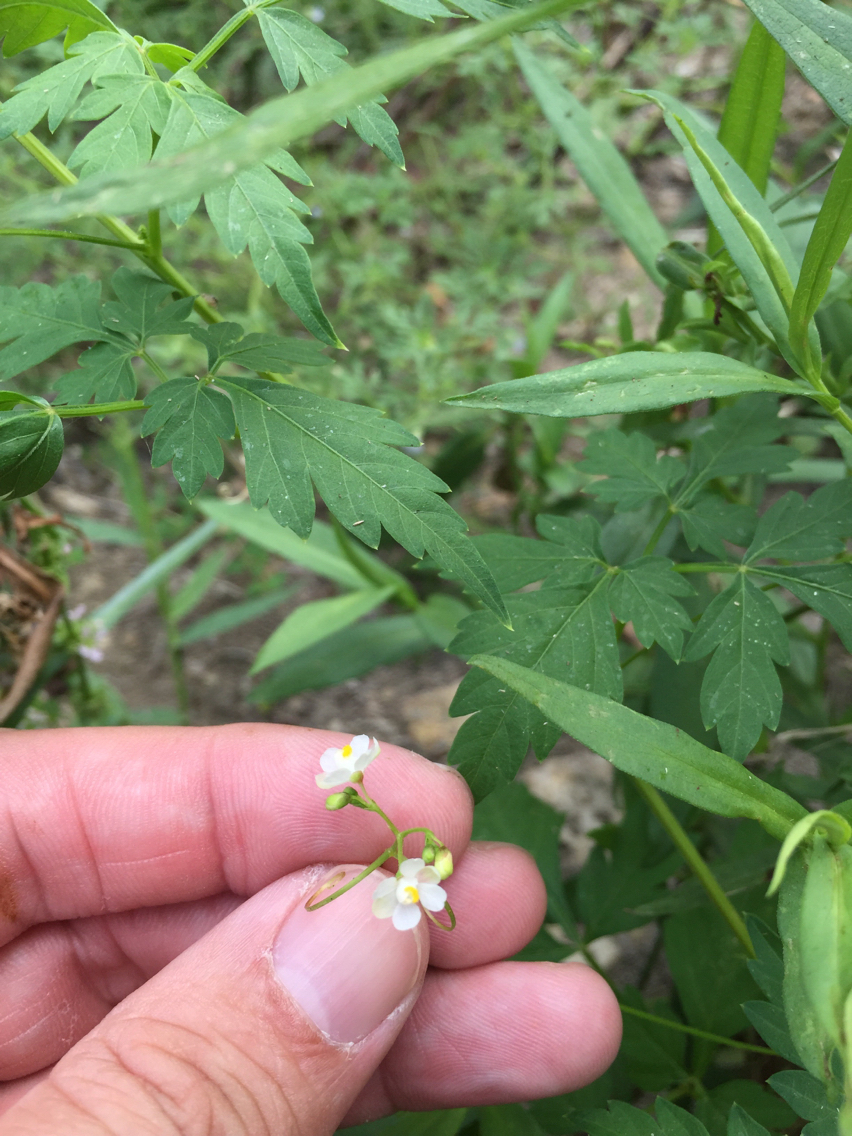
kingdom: Plantae
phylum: Tracheophyta
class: Magnoliopsida
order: Sapindales
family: Sapindaceae
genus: Cardiospermum
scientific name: Cardiospermum halicacabum
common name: Balloon vine
